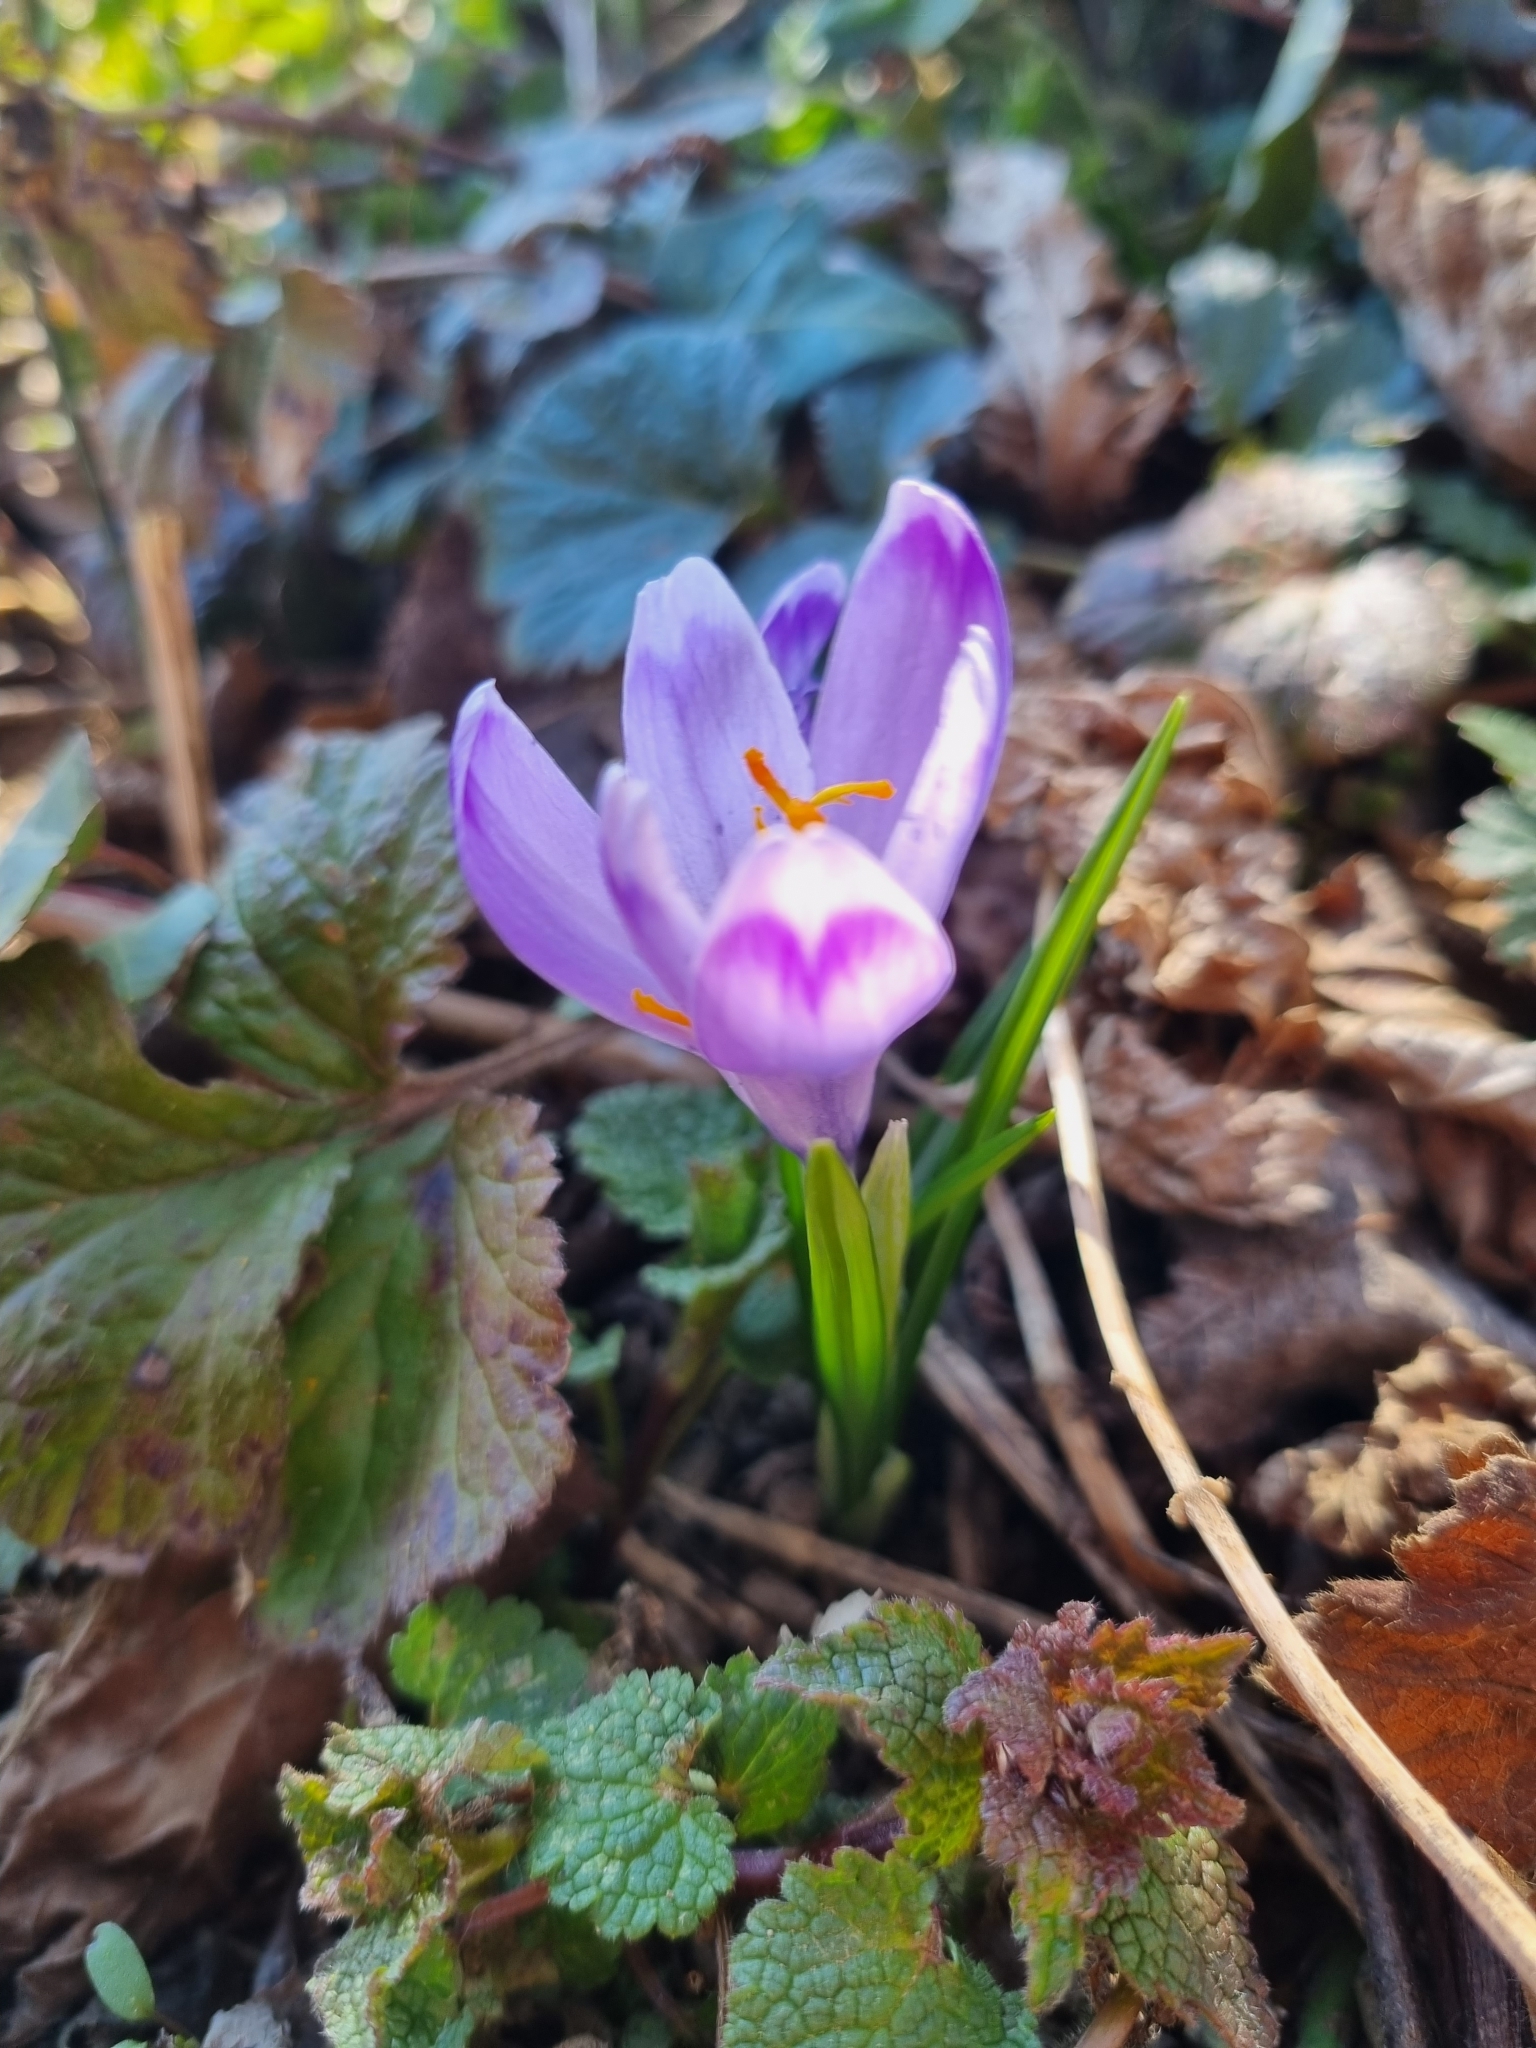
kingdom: Plantae
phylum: Tracheophyta
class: Liliopsida
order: Asparagales
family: Iridaceae
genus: Crocus
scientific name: Crocus heuffelianus
